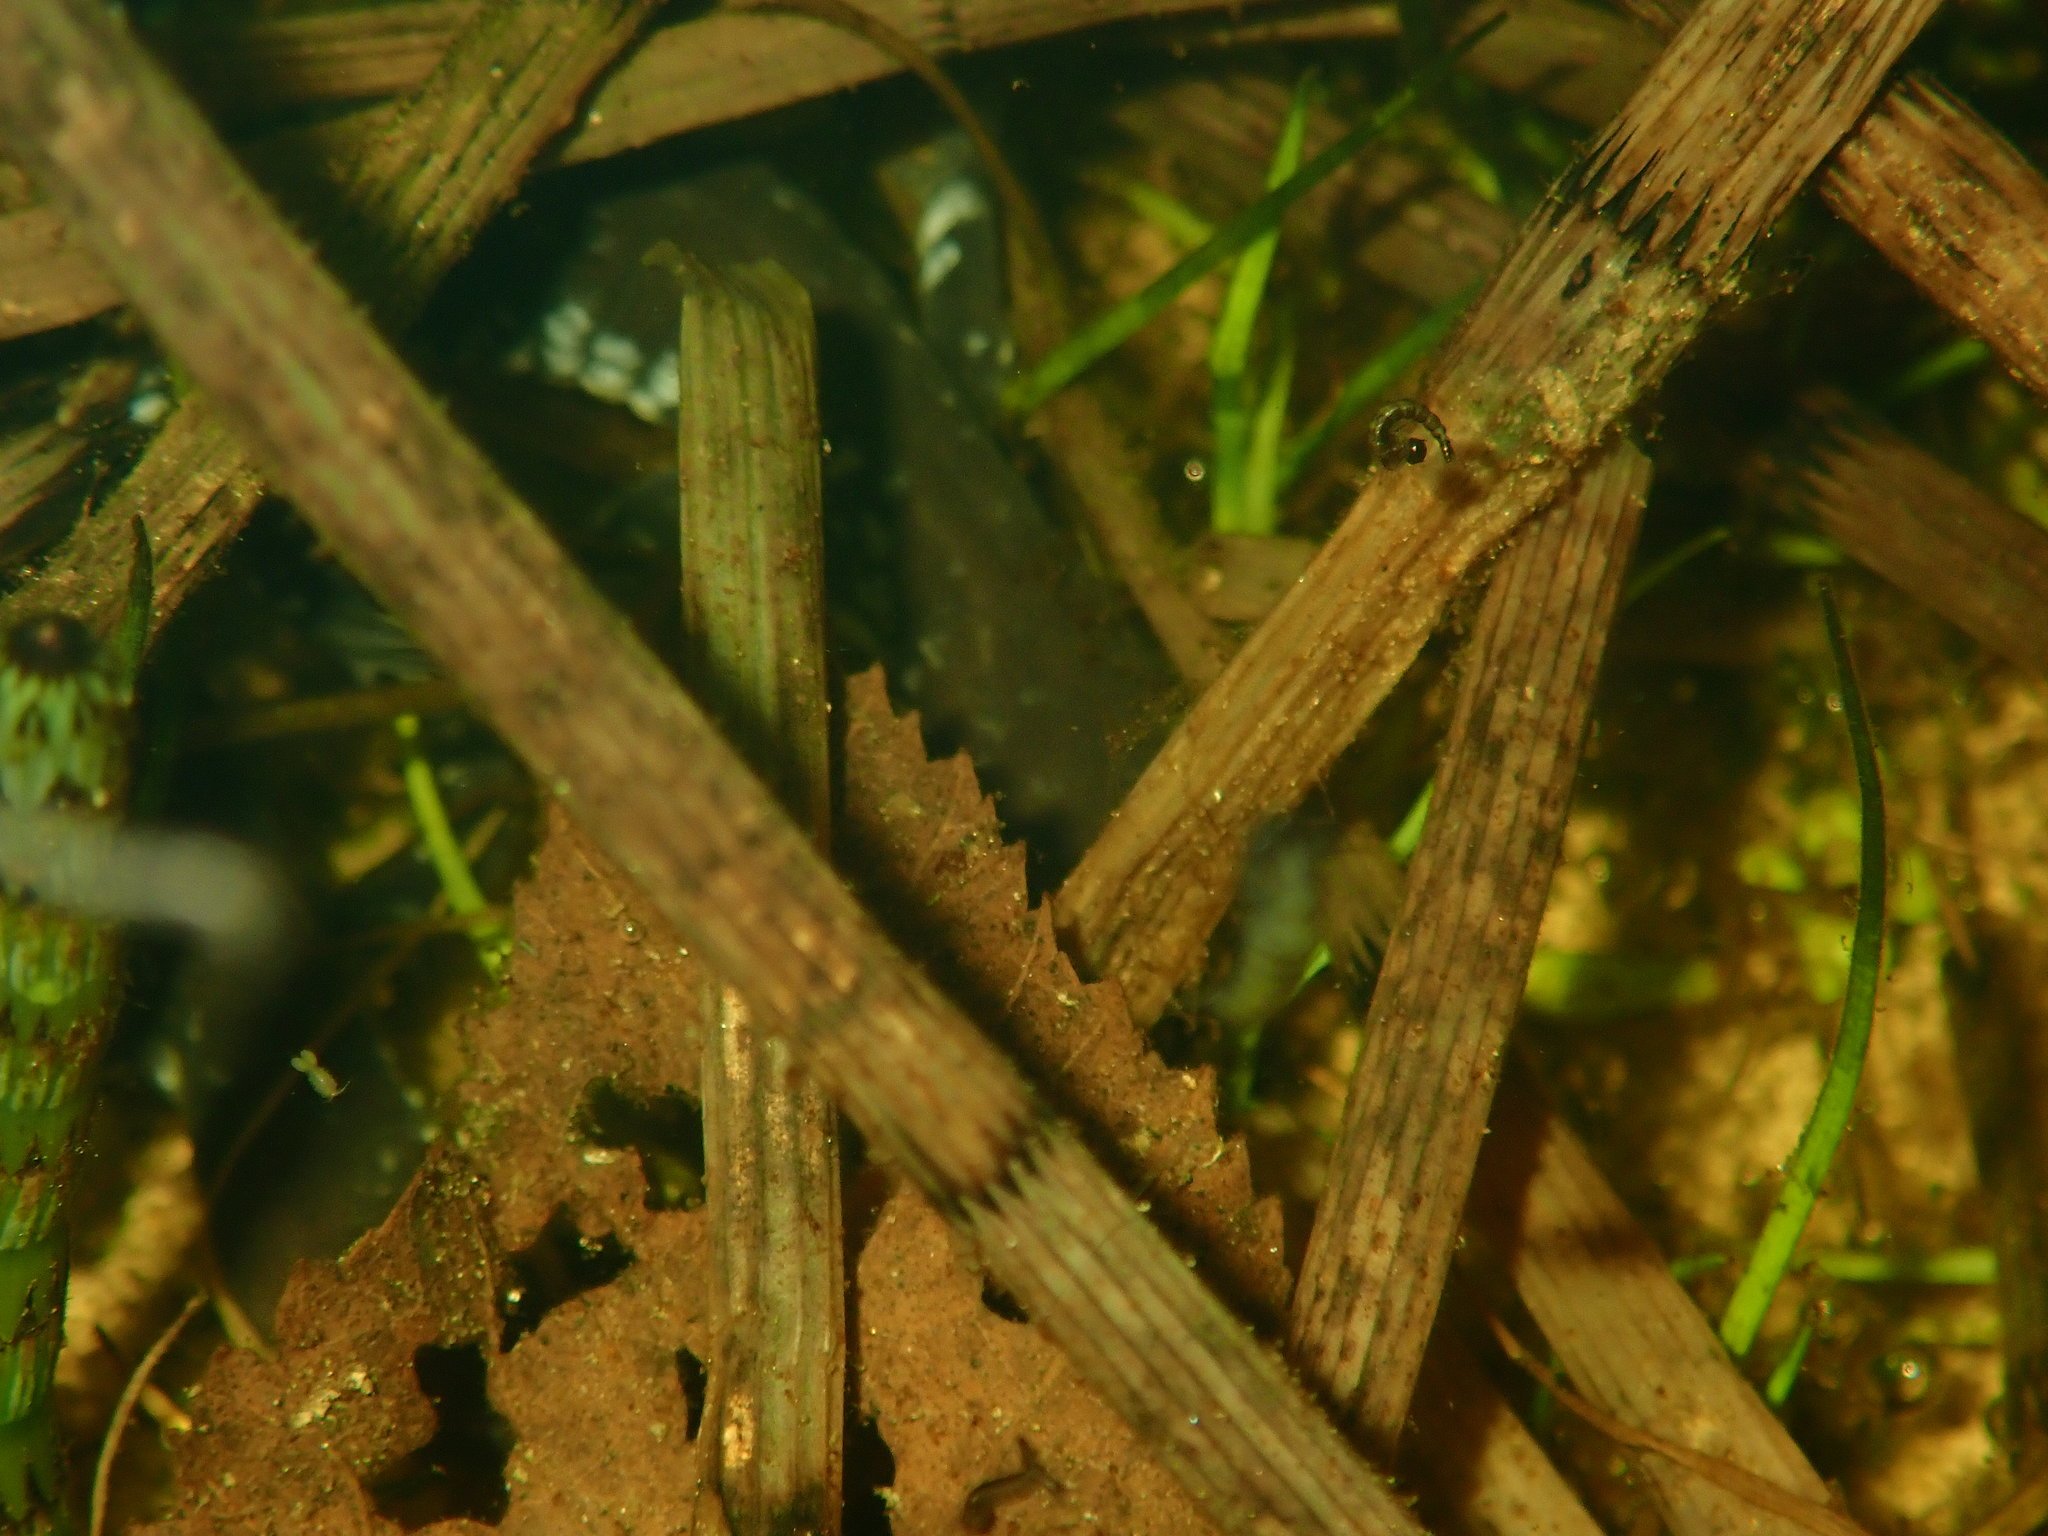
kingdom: Animalia
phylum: Chordata
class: Amphibia
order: Caudata
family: Ambystomatidae
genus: Ambystoma
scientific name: Ambystoma laterale
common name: Blue-spotted salamander
